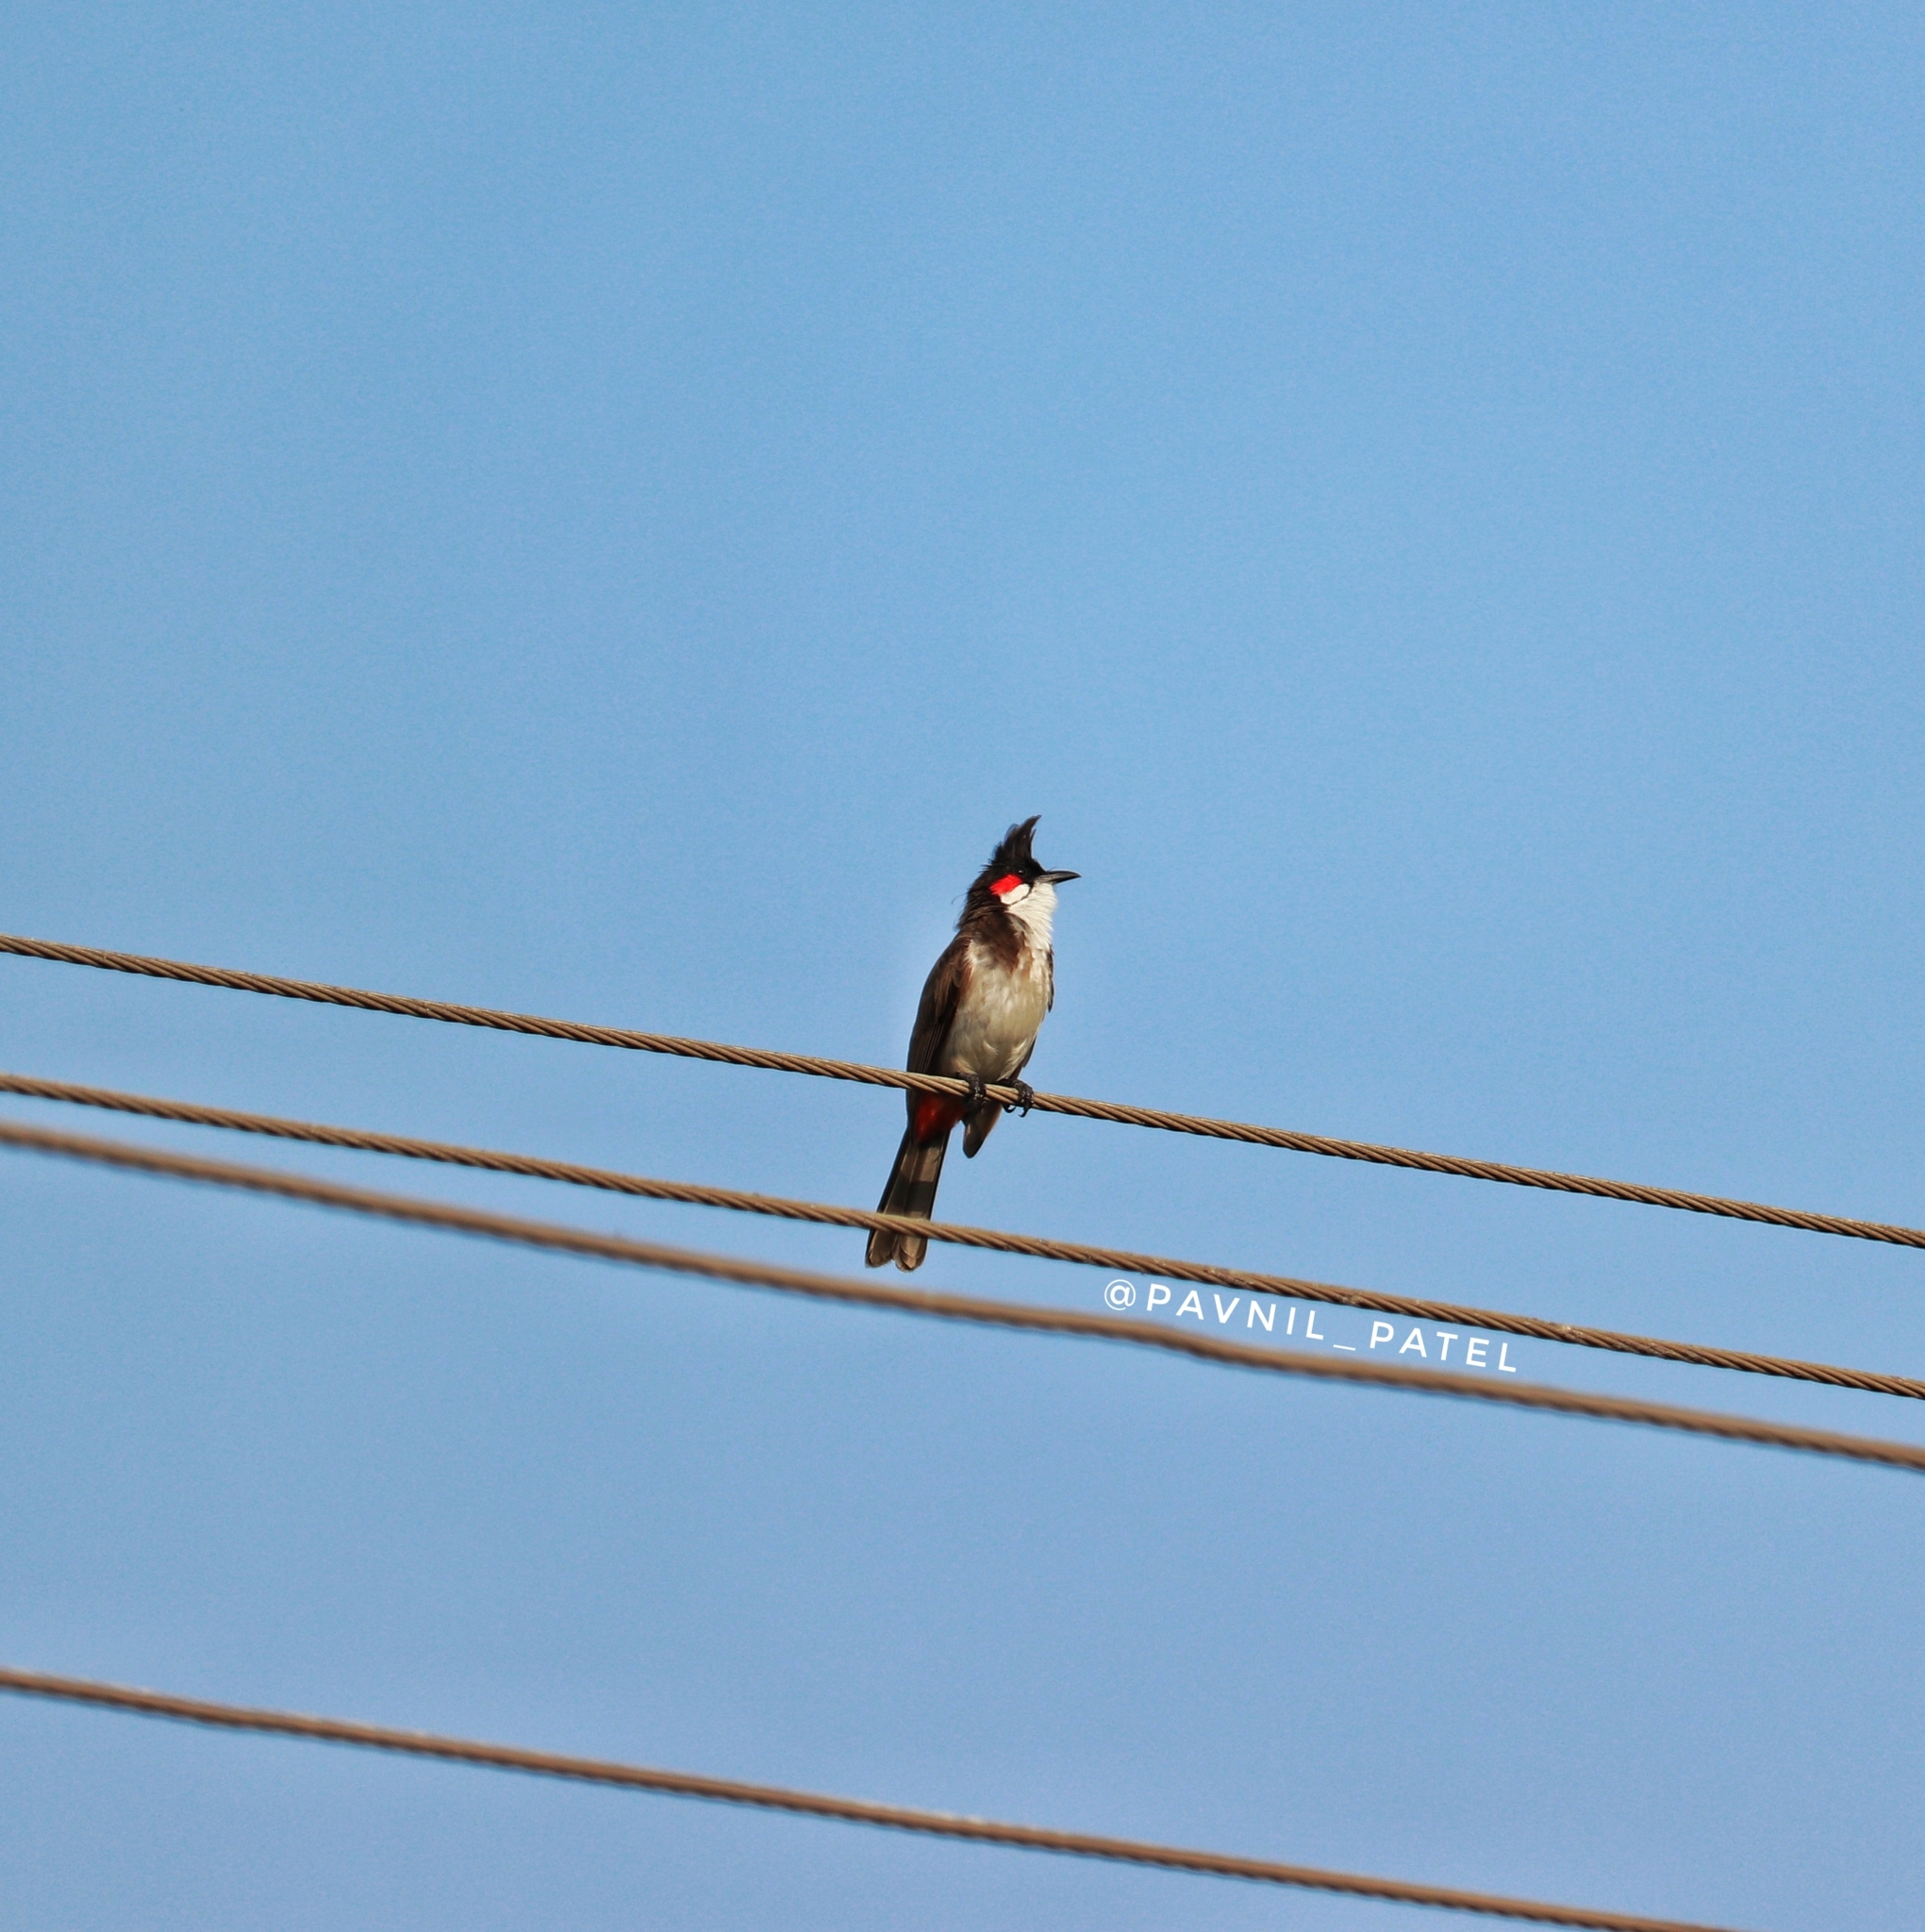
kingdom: Animalia
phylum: Chordata
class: Aves
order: Passeriformes
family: Pycnonotidae
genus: Pycnonotus
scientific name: Pycnonotus jocosus
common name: Red-whiskered bulbul
